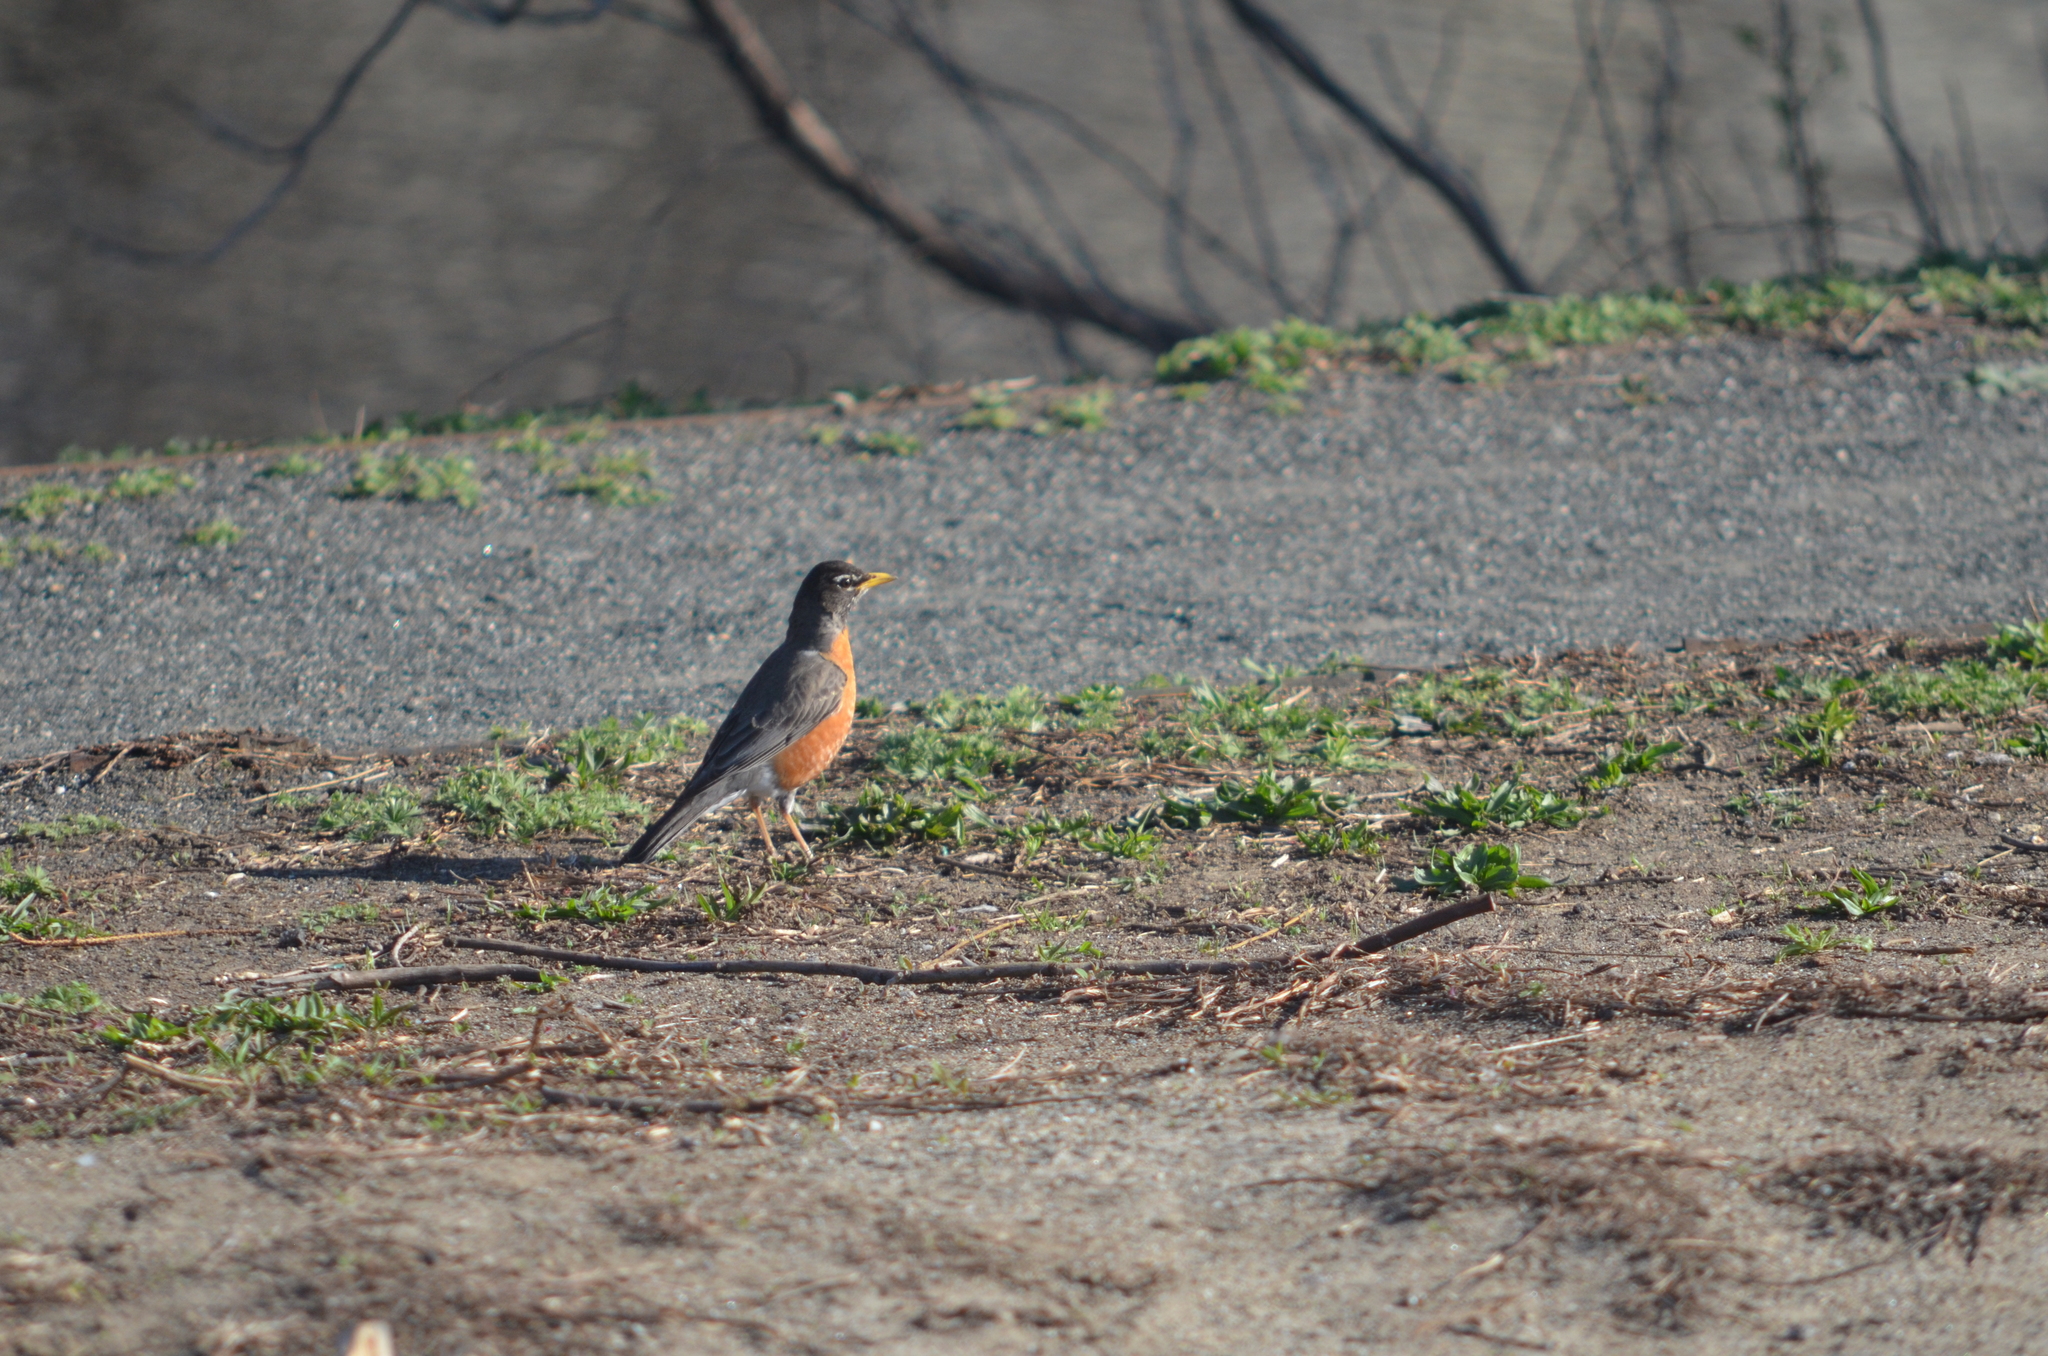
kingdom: Animalia
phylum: Chordata
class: Aves
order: Passeriformes
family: Turdidae
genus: Turdus
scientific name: Turdus migratorius
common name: American robin
